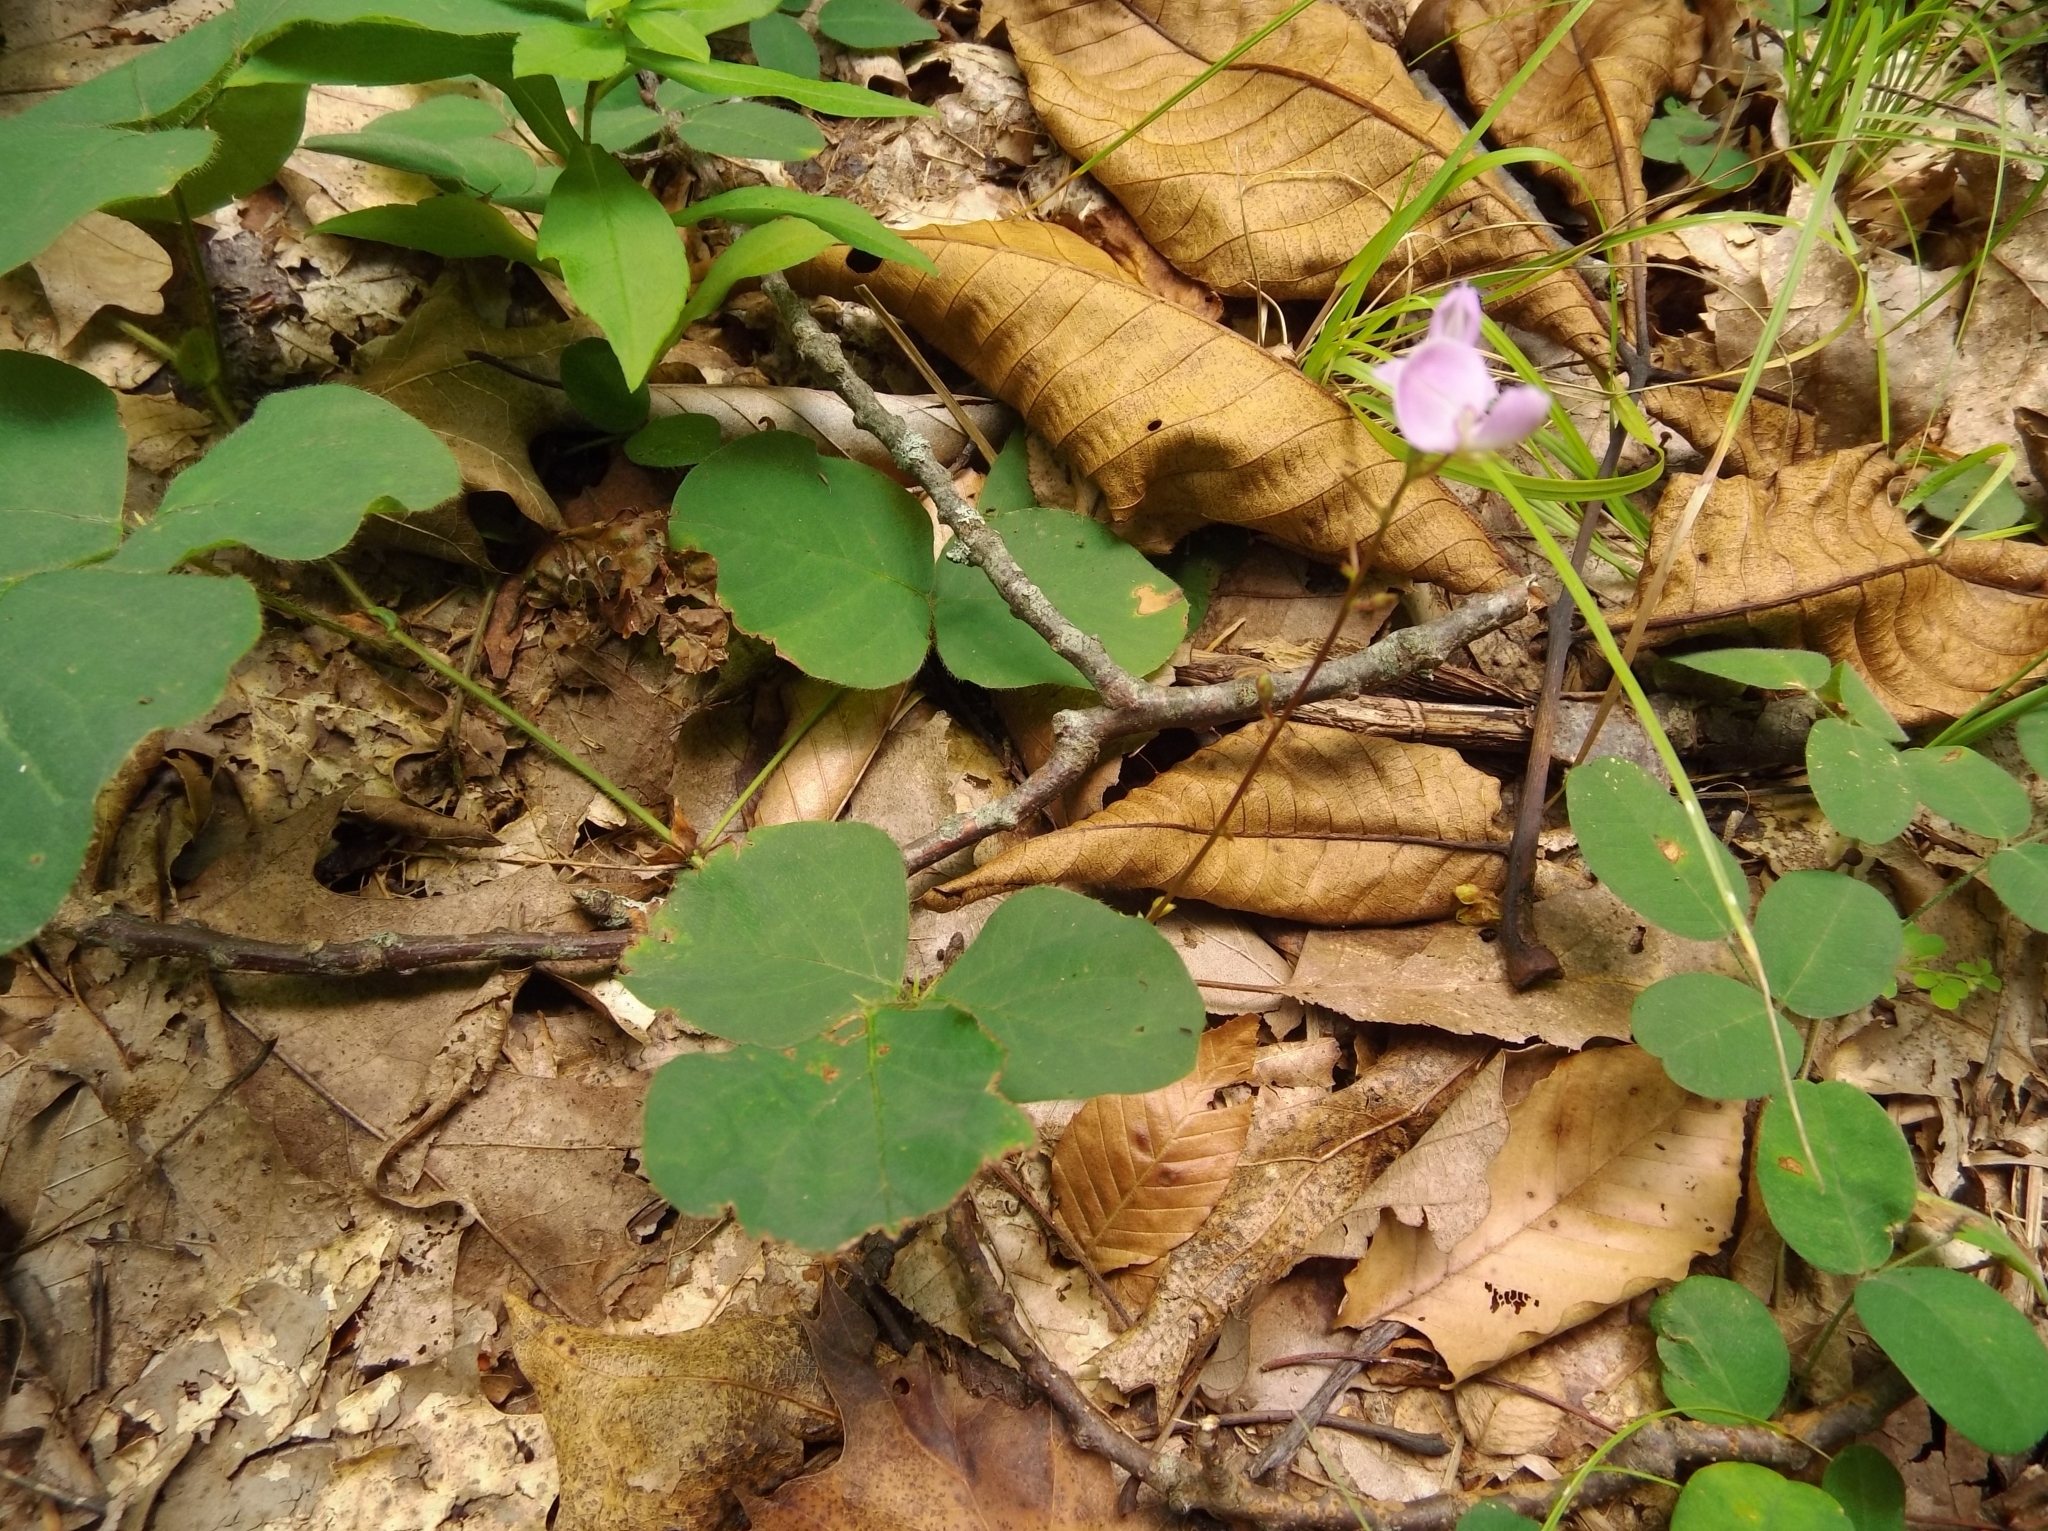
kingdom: Plantae
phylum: Tracheophyta
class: Magnoliopsida
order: Fabales
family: Fabaceae
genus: Desmodium
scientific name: Desmodium rotundifolium
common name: Dollarleaf
